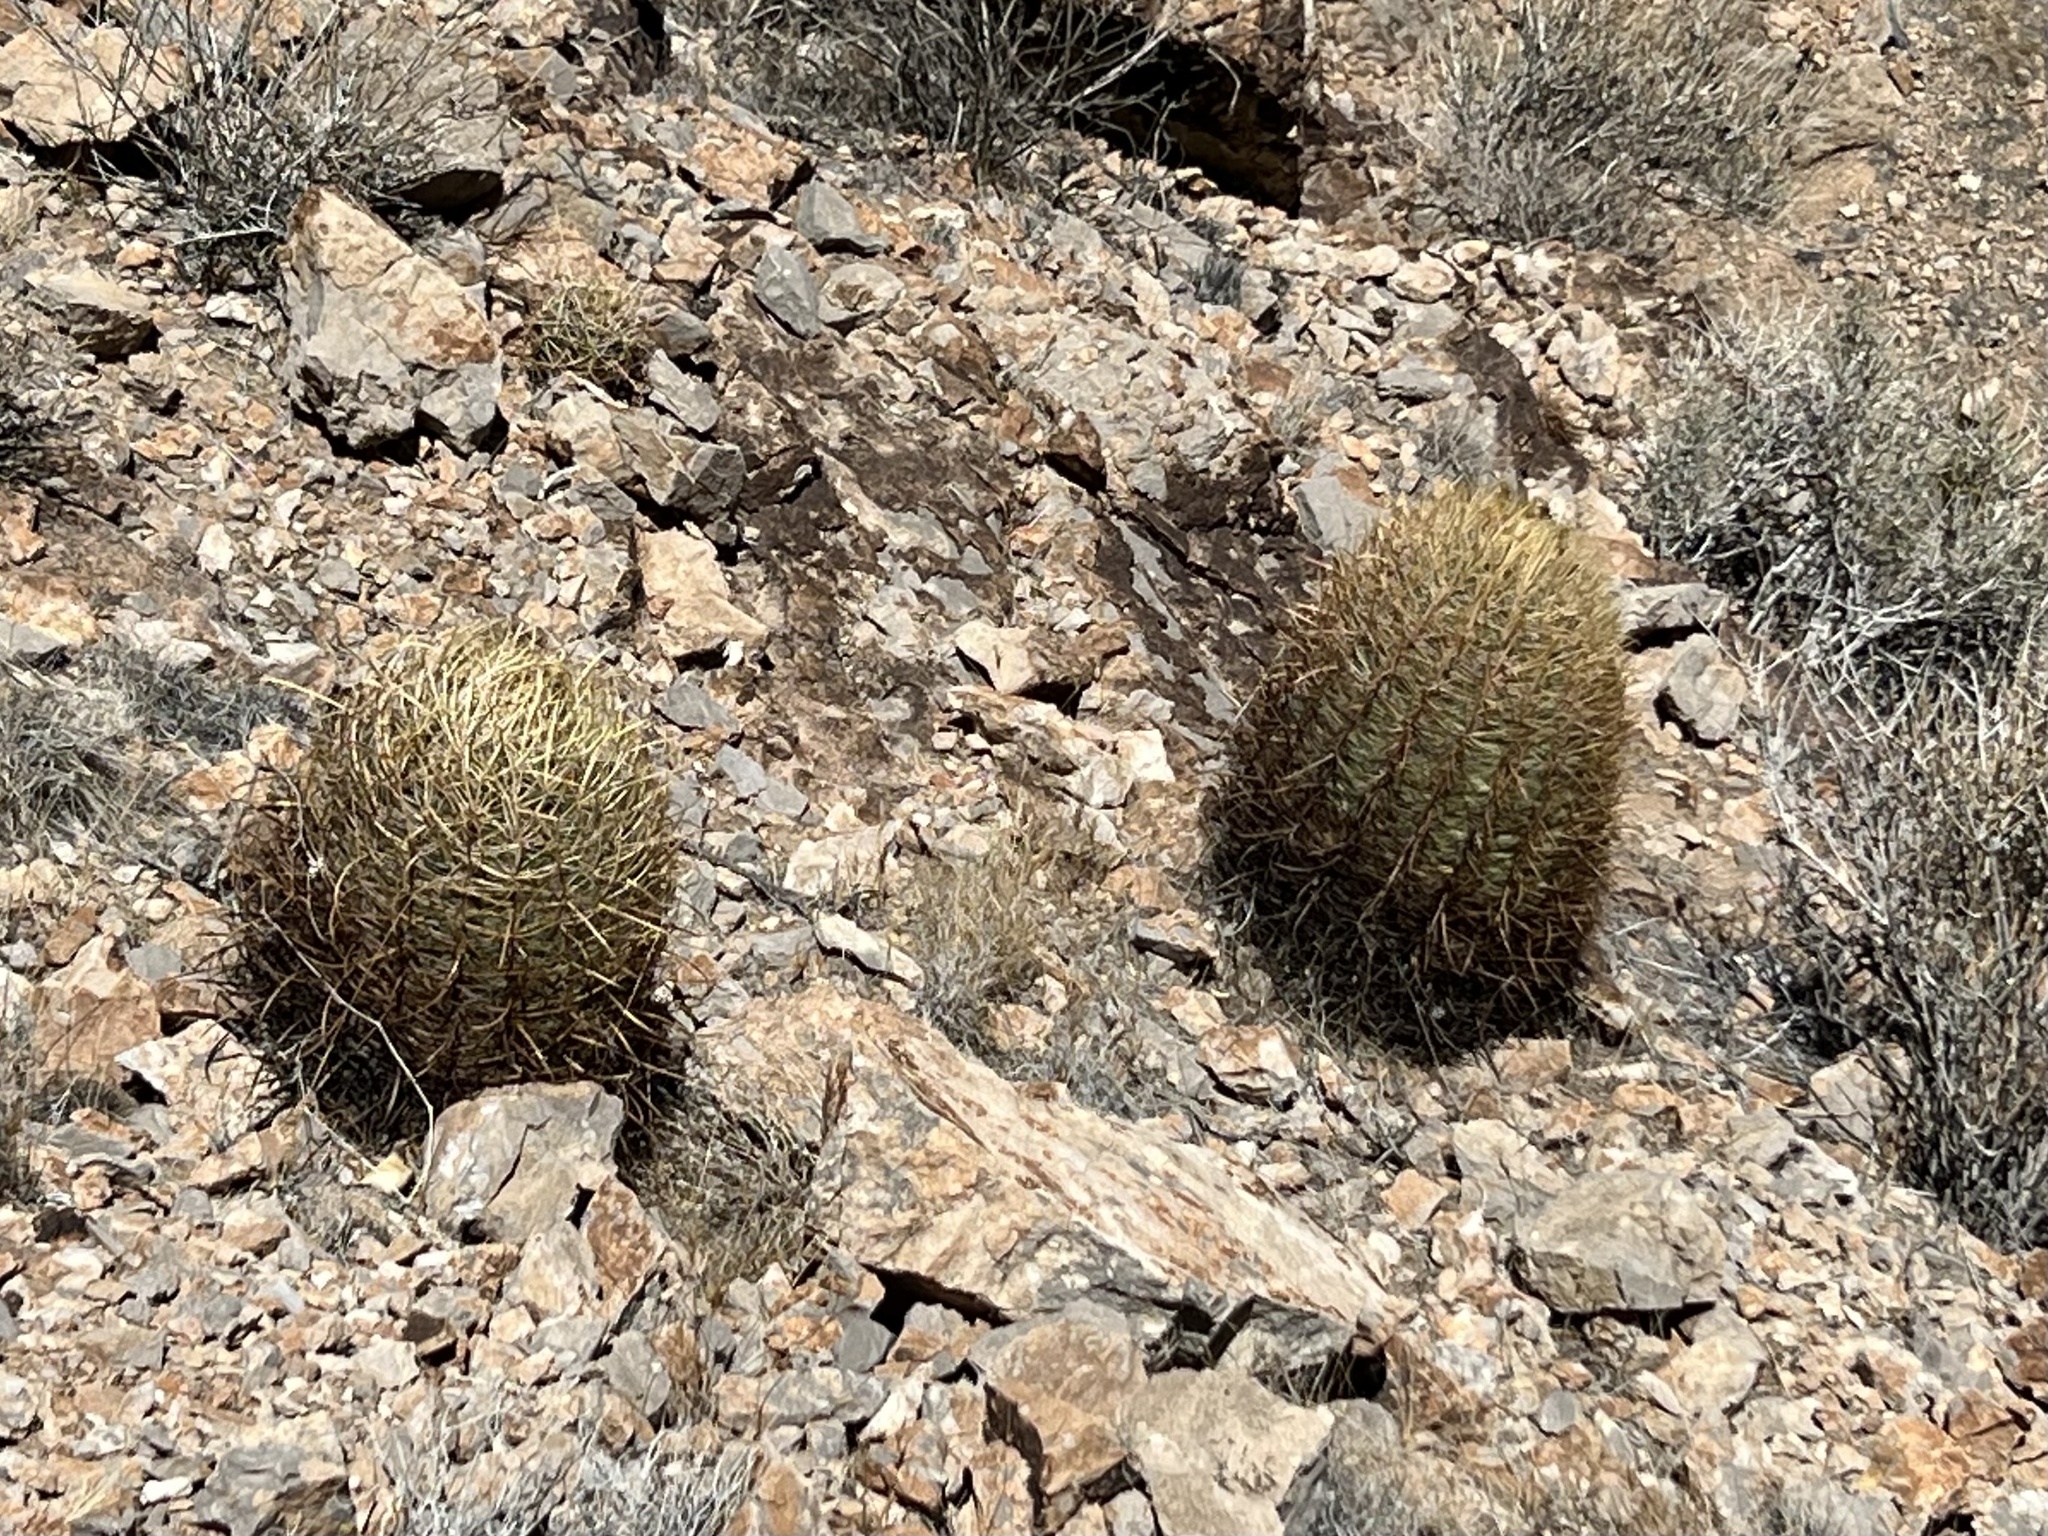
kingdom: Plantae
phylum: Tracheophyta
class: Magnoliopsida
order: Caryophyllales
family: Cactaceae
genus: Ferocactus
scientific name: Ferocactus cylindraceus
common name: California barrel cactus
